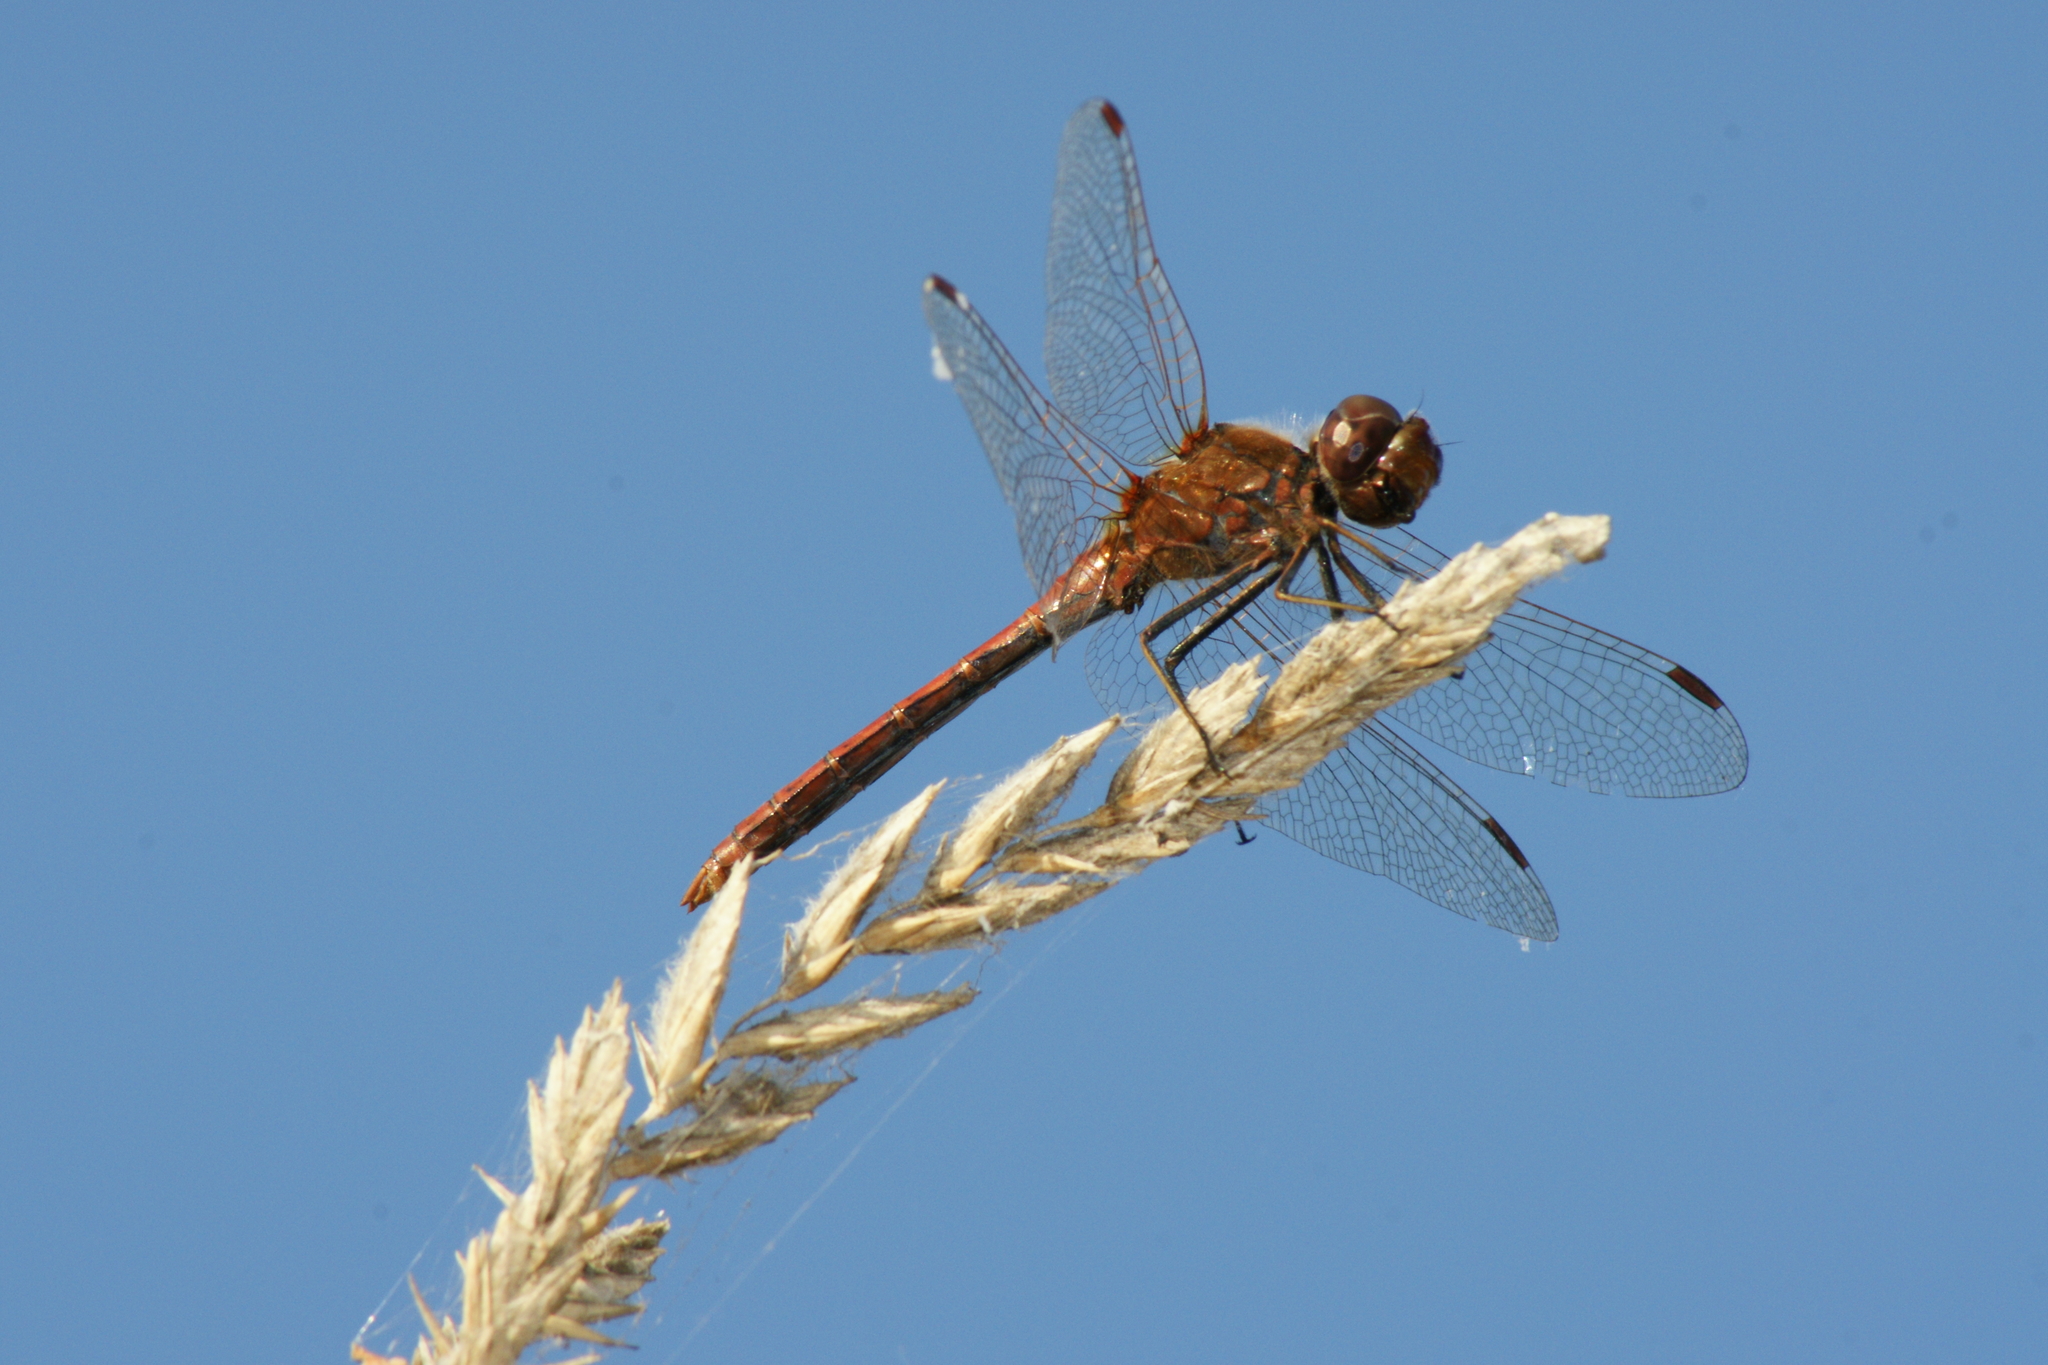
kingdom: Animalia
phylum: Arthropoda
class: Insecta
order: Odonata
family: Libellulidae
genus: Sympetrum
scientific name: Sympetrum vulgatum
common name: Vagrant darter
